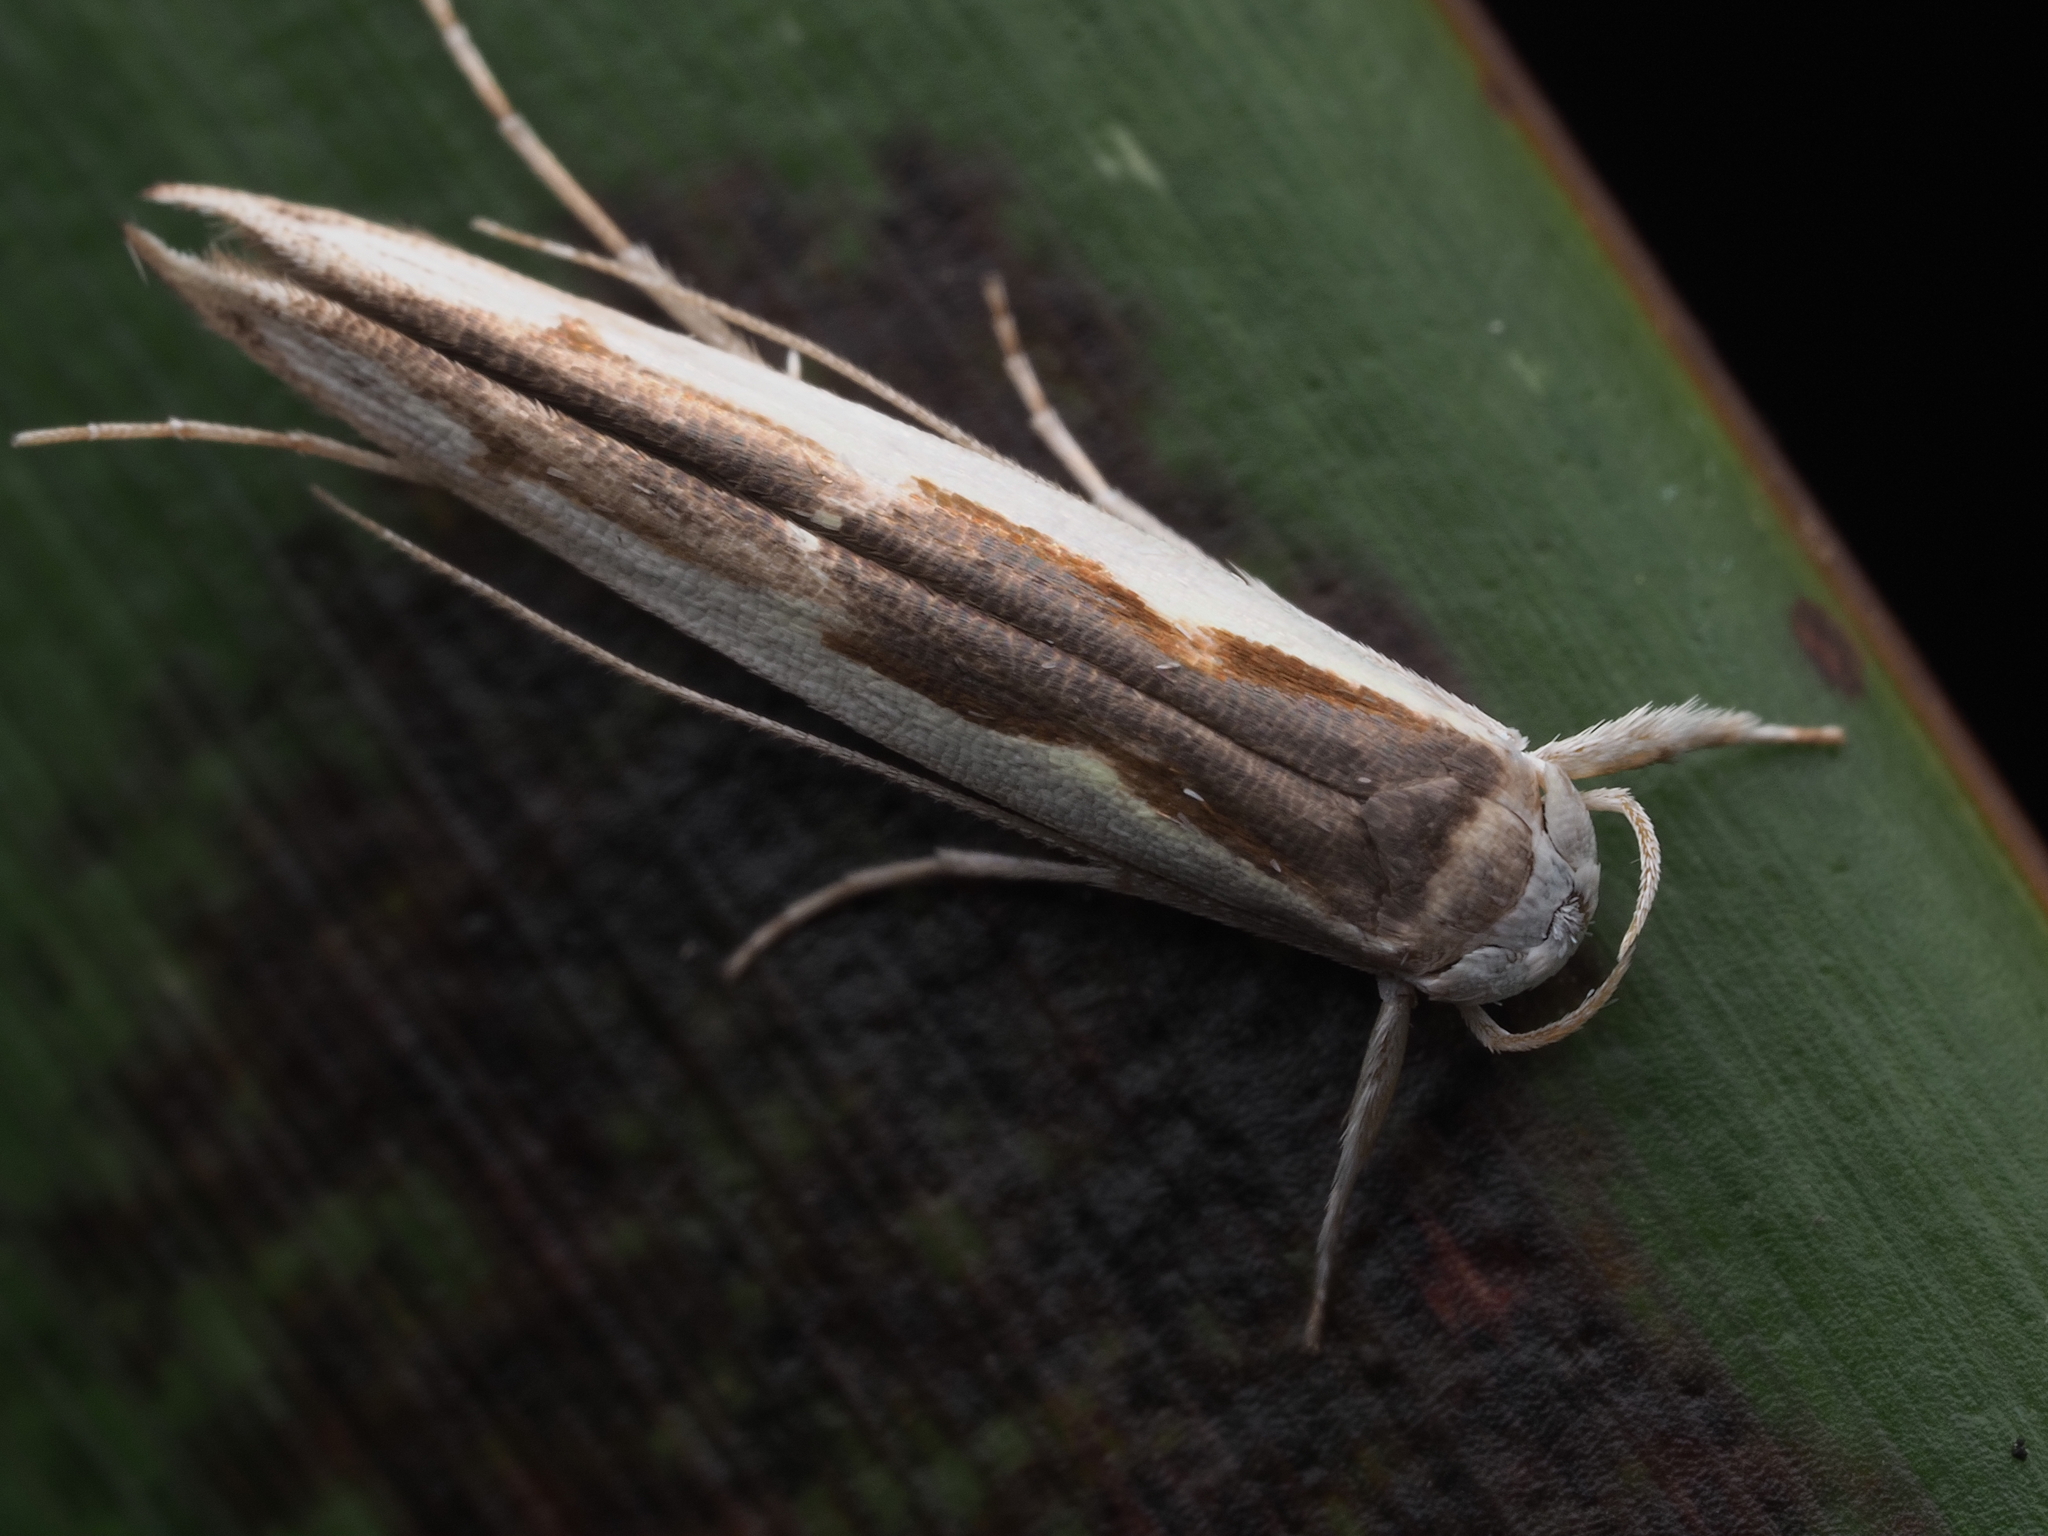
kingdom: Animalia
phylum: Arthropoda
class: Insecta
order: Lepidoptera
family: Roeslerstammiidae
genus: Vanicela
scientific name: Vanicela disjunctella
